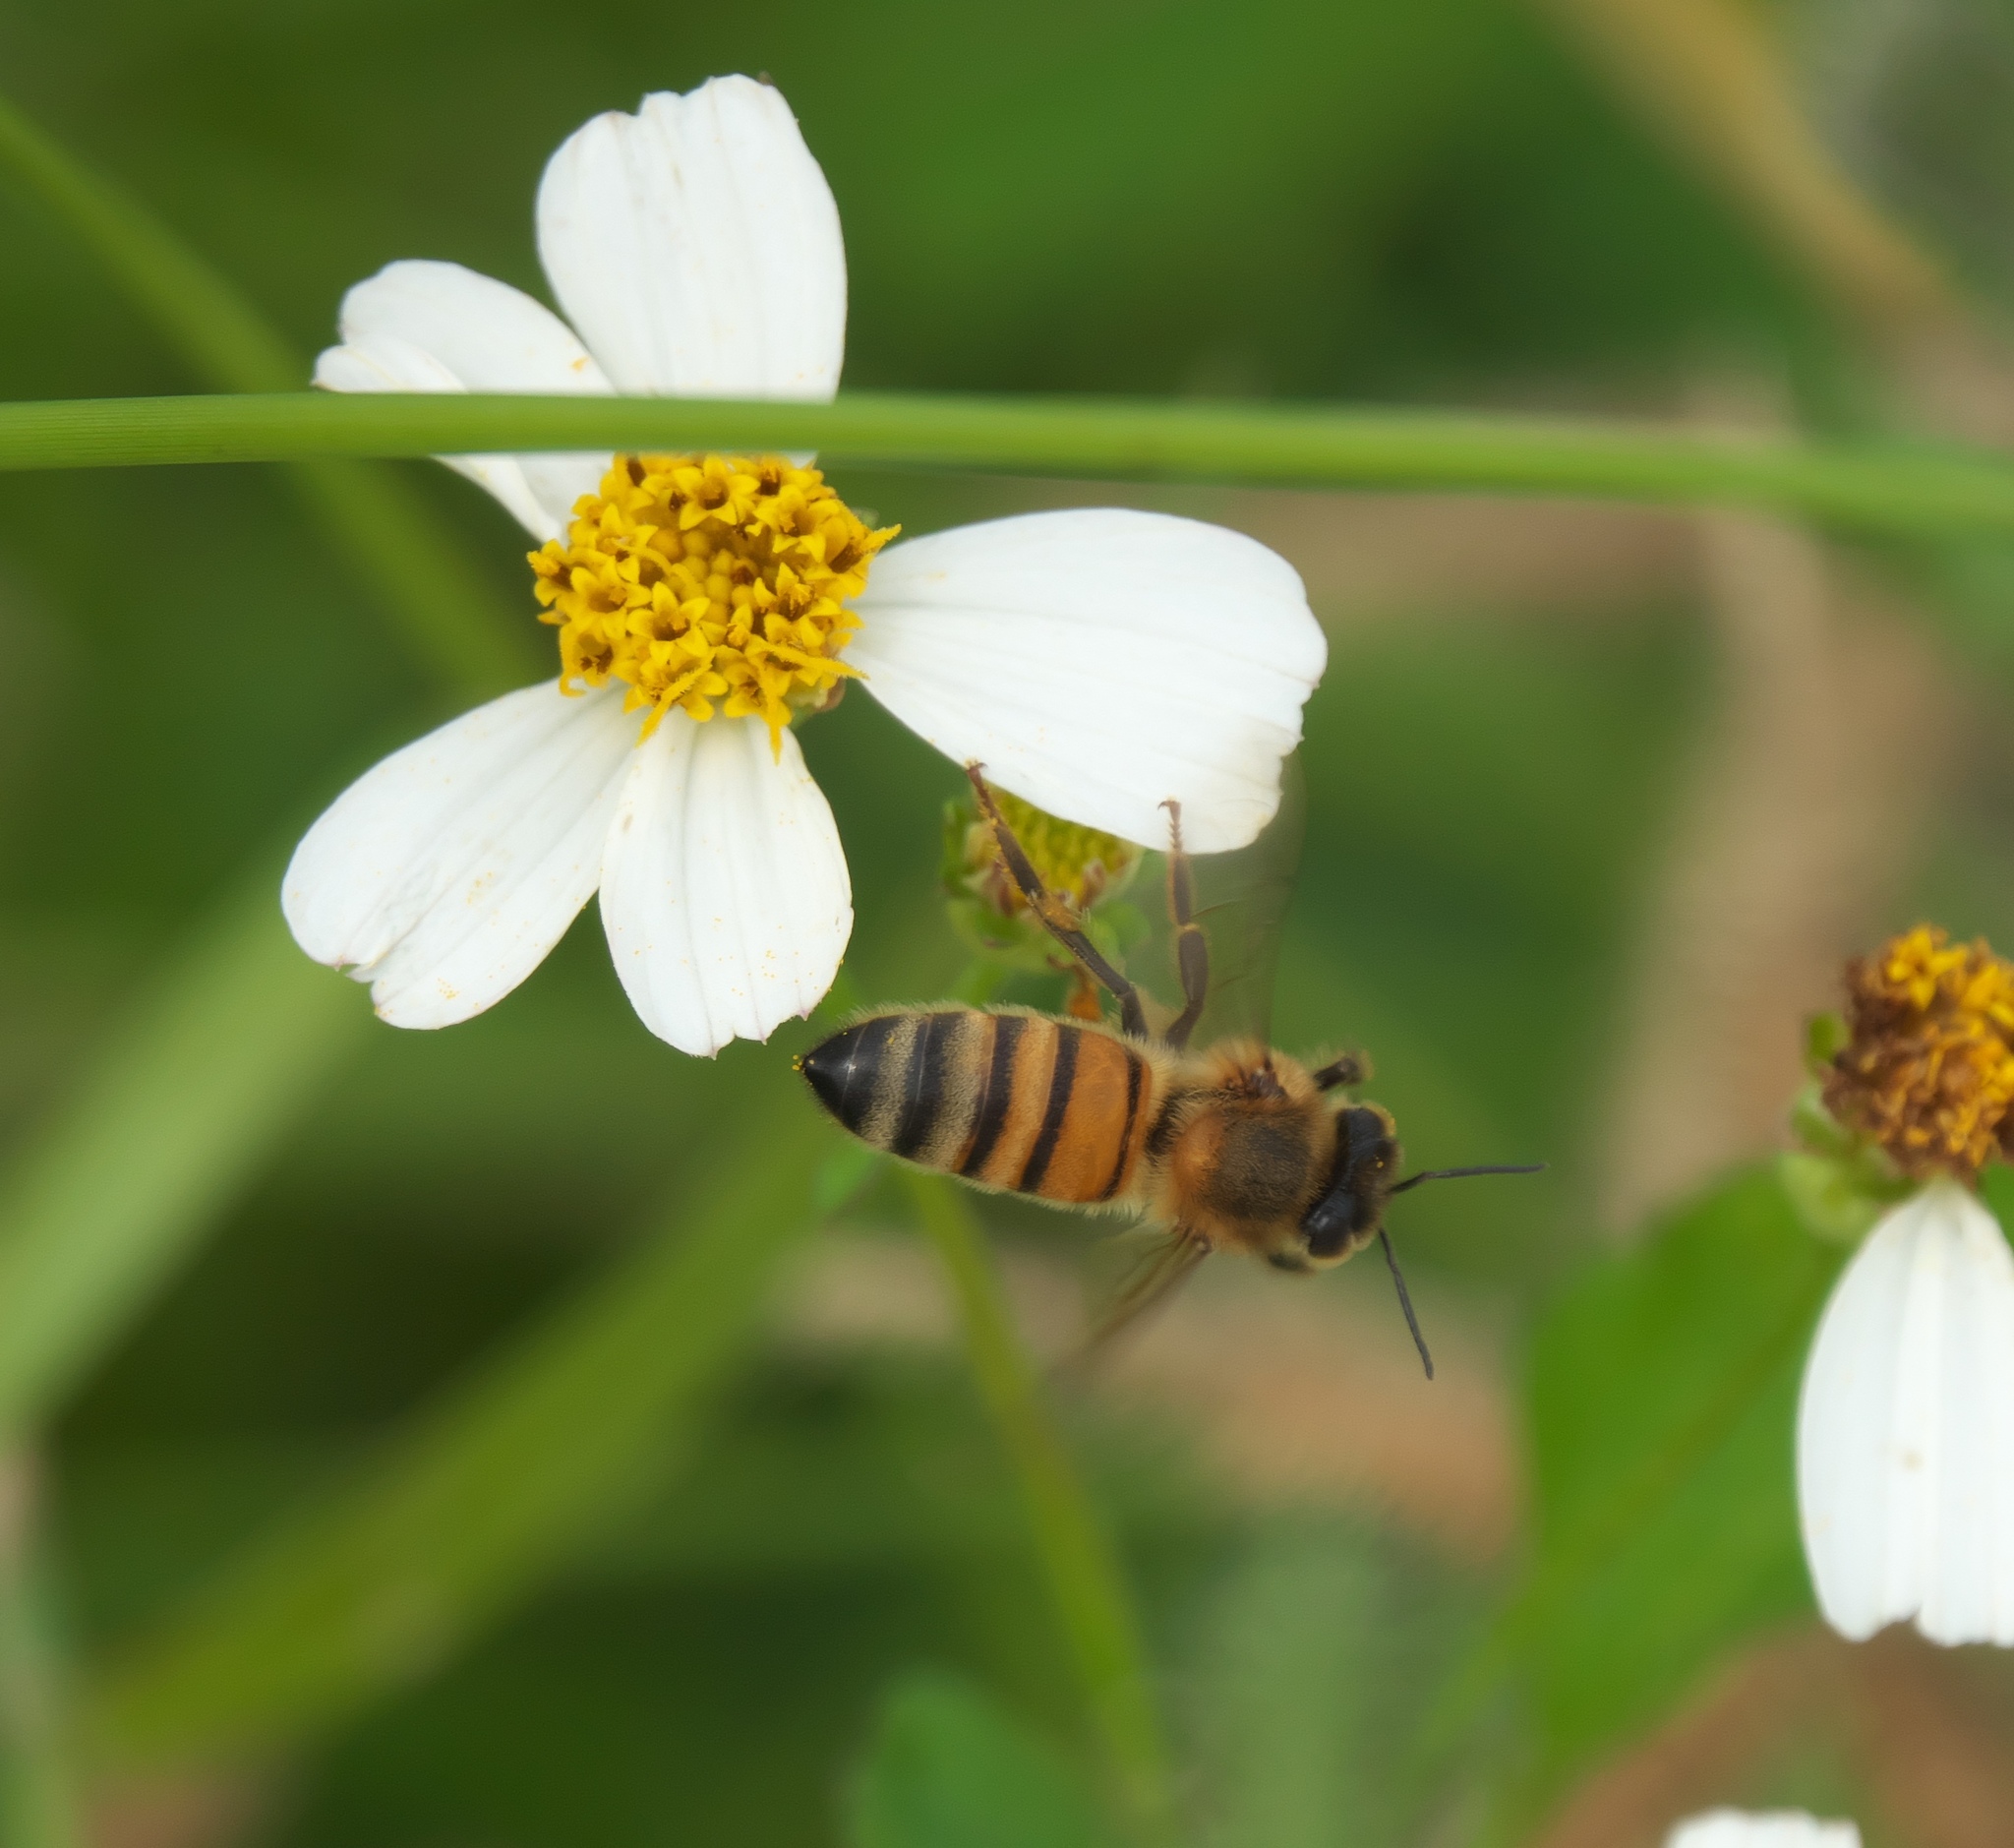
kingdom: Animalia
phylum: Arthropoda
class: Insecta
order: Hymenoptera
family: Apidae
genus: Apis
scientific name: Apis mellifera
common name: Honey bee
